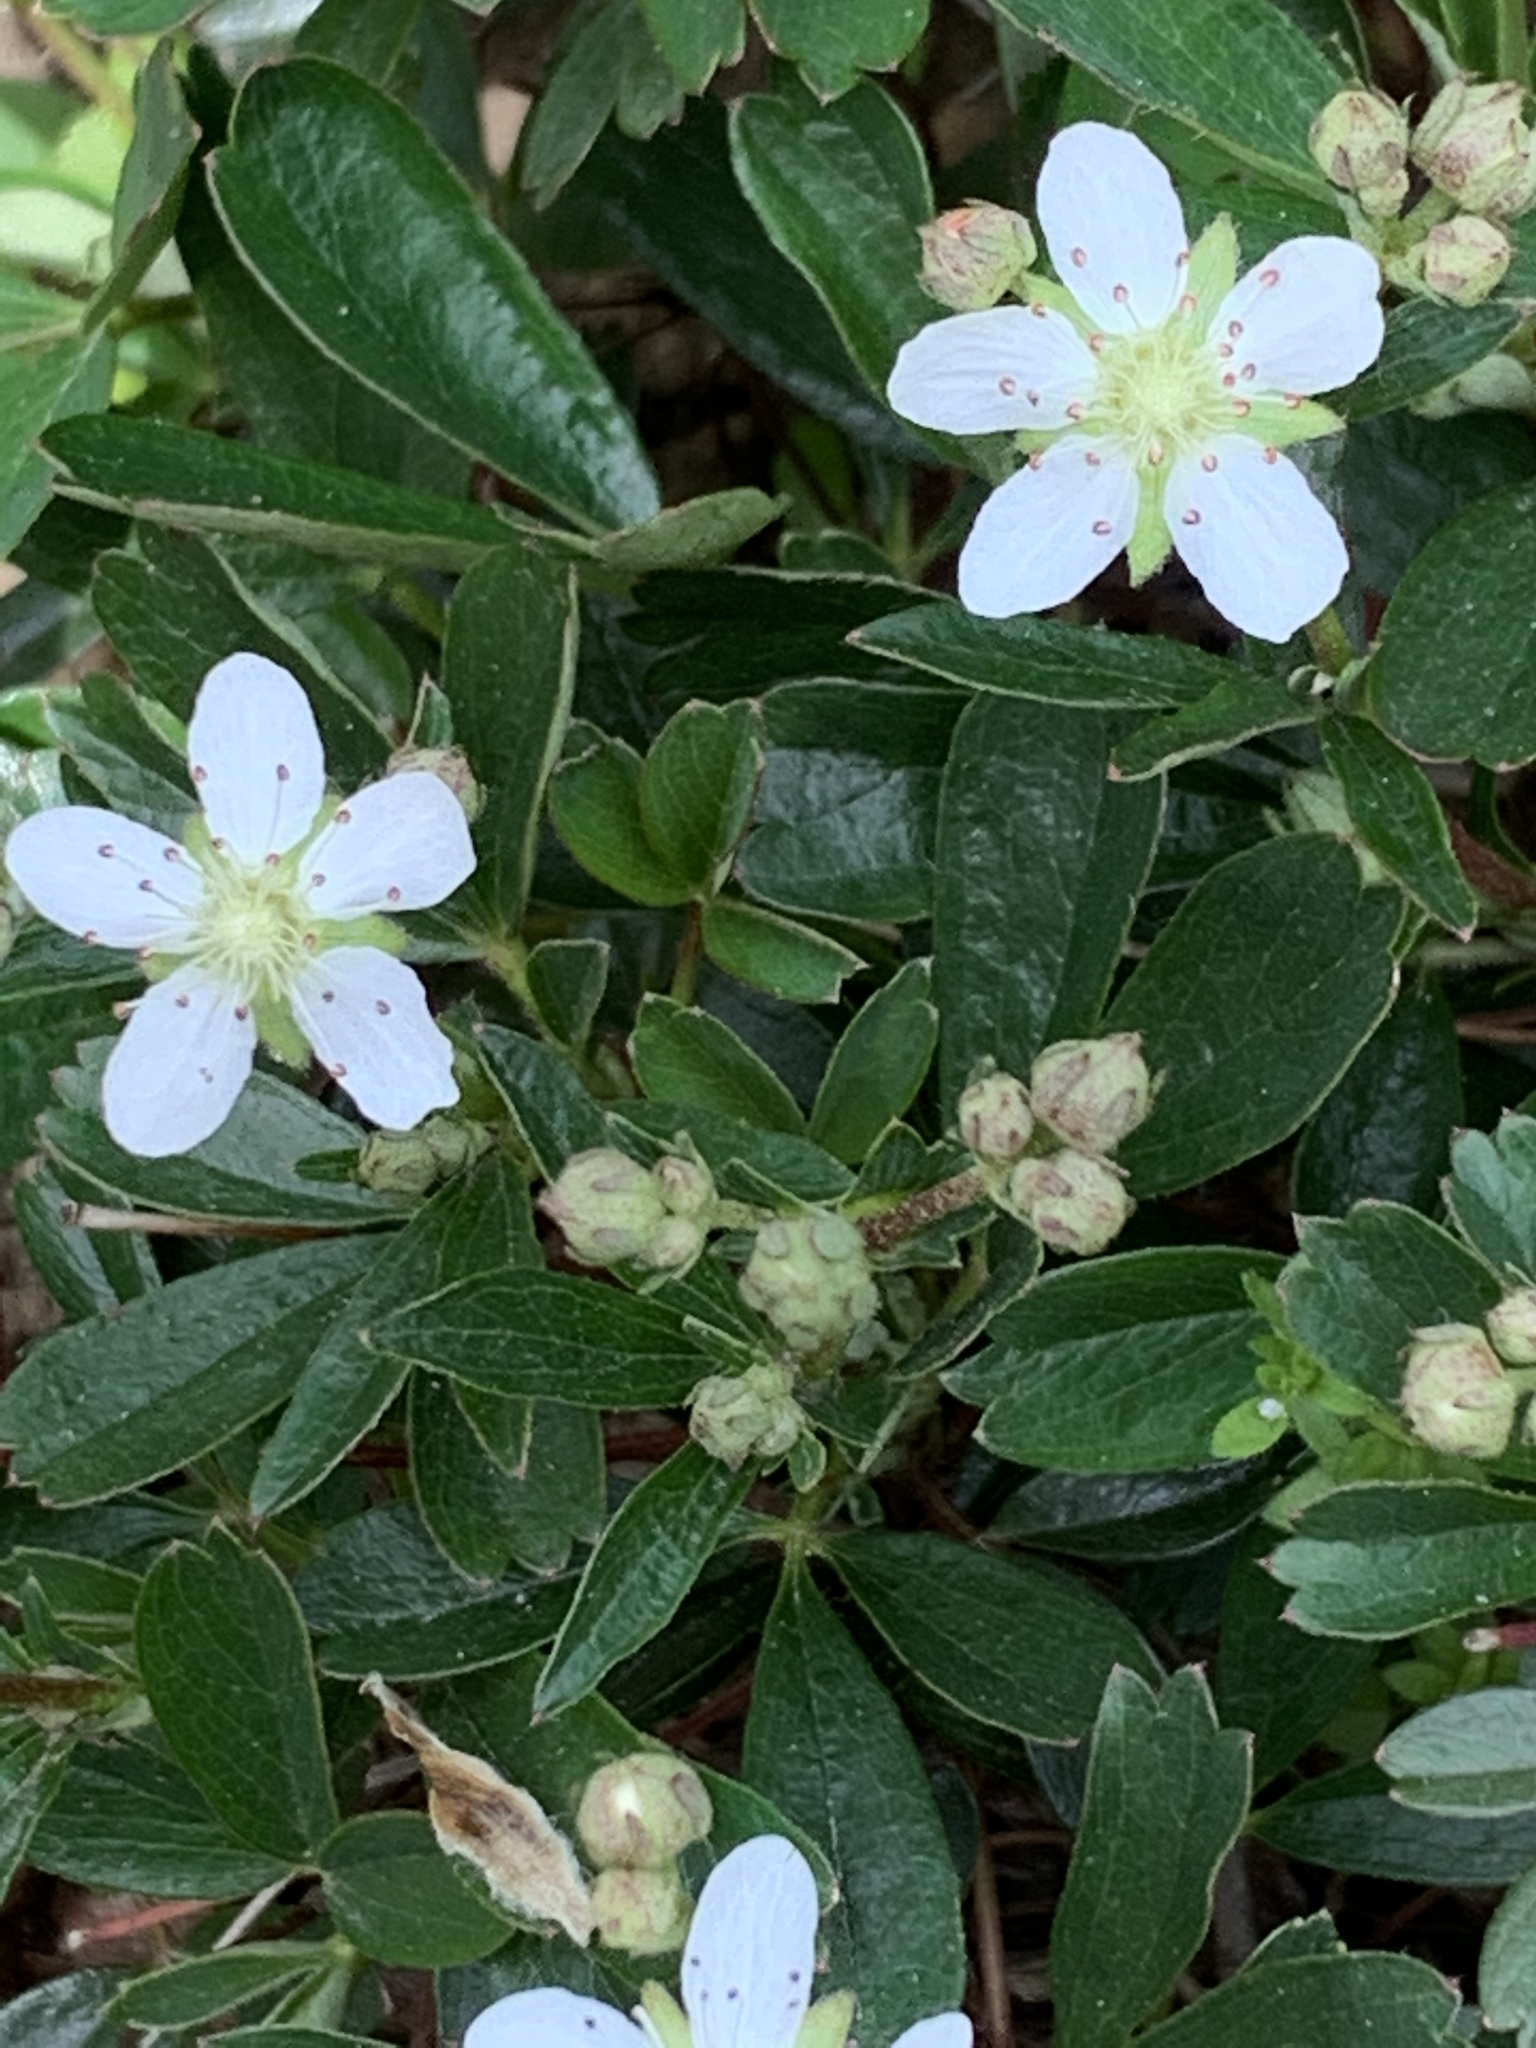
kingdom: Plantae
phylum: Tracheophyta
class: Magnoliopsida
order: Rosales
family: Rosaceae
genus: Sibbaldia
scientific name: Sibbaldia tridentata
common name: Three-toothed cinquefoil
